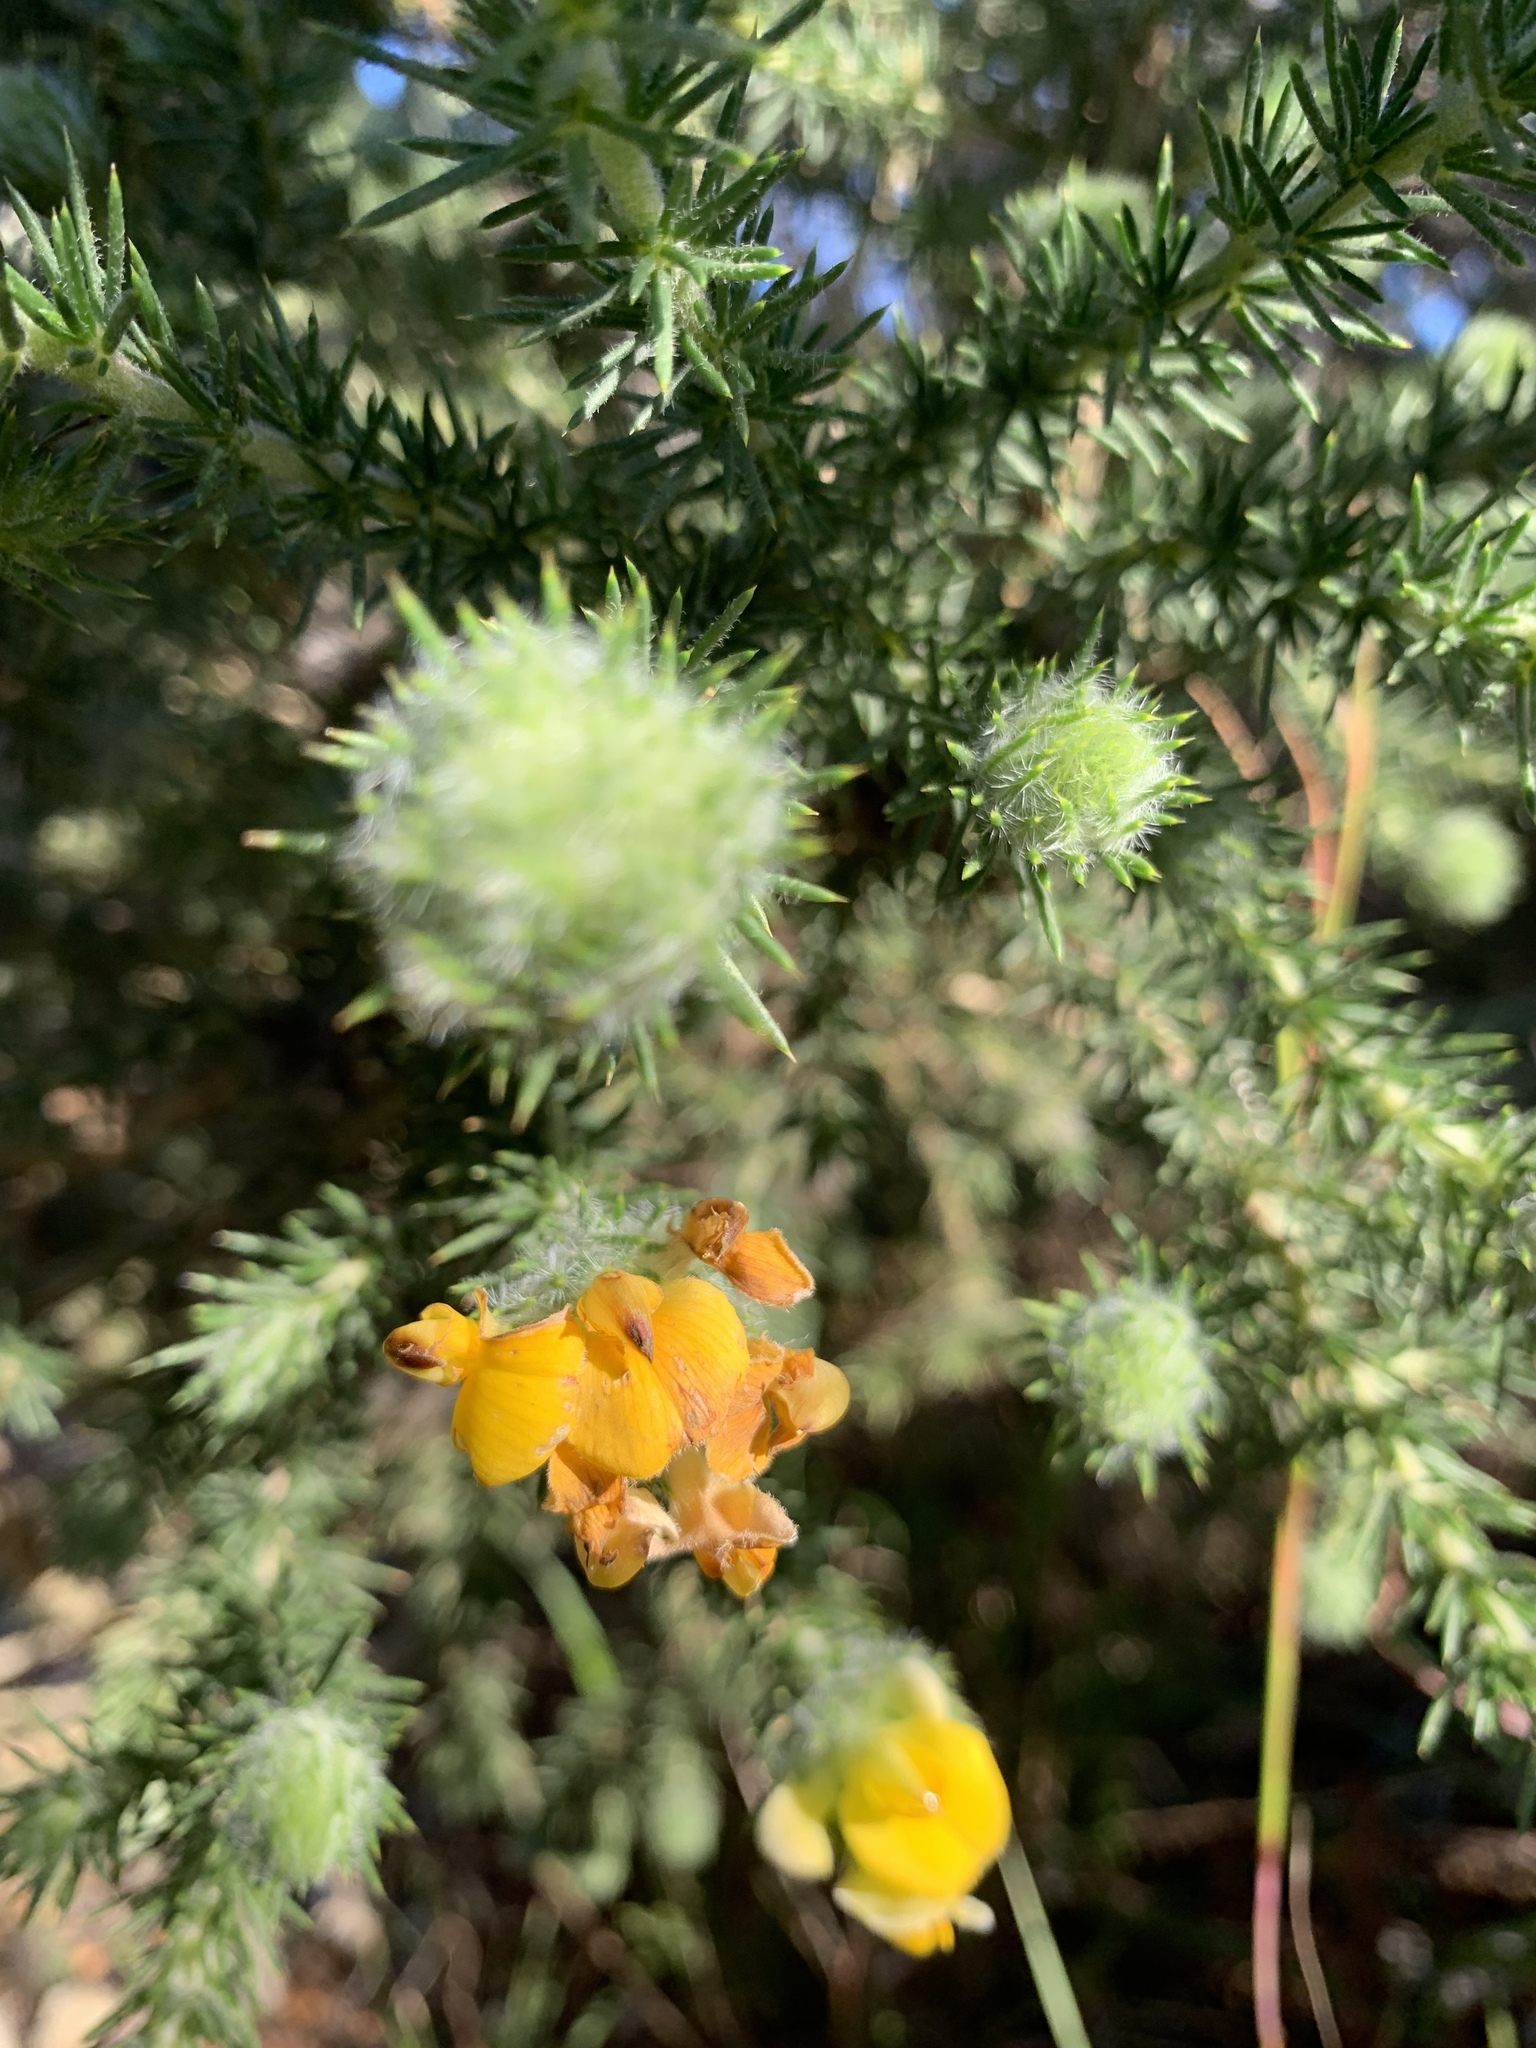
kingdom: Plantae
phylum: Tracheophyta
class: Magnoliopsida
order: Fabales
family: Fabaceae
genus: Aspalathus
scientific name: Aspalathus chenopoda
